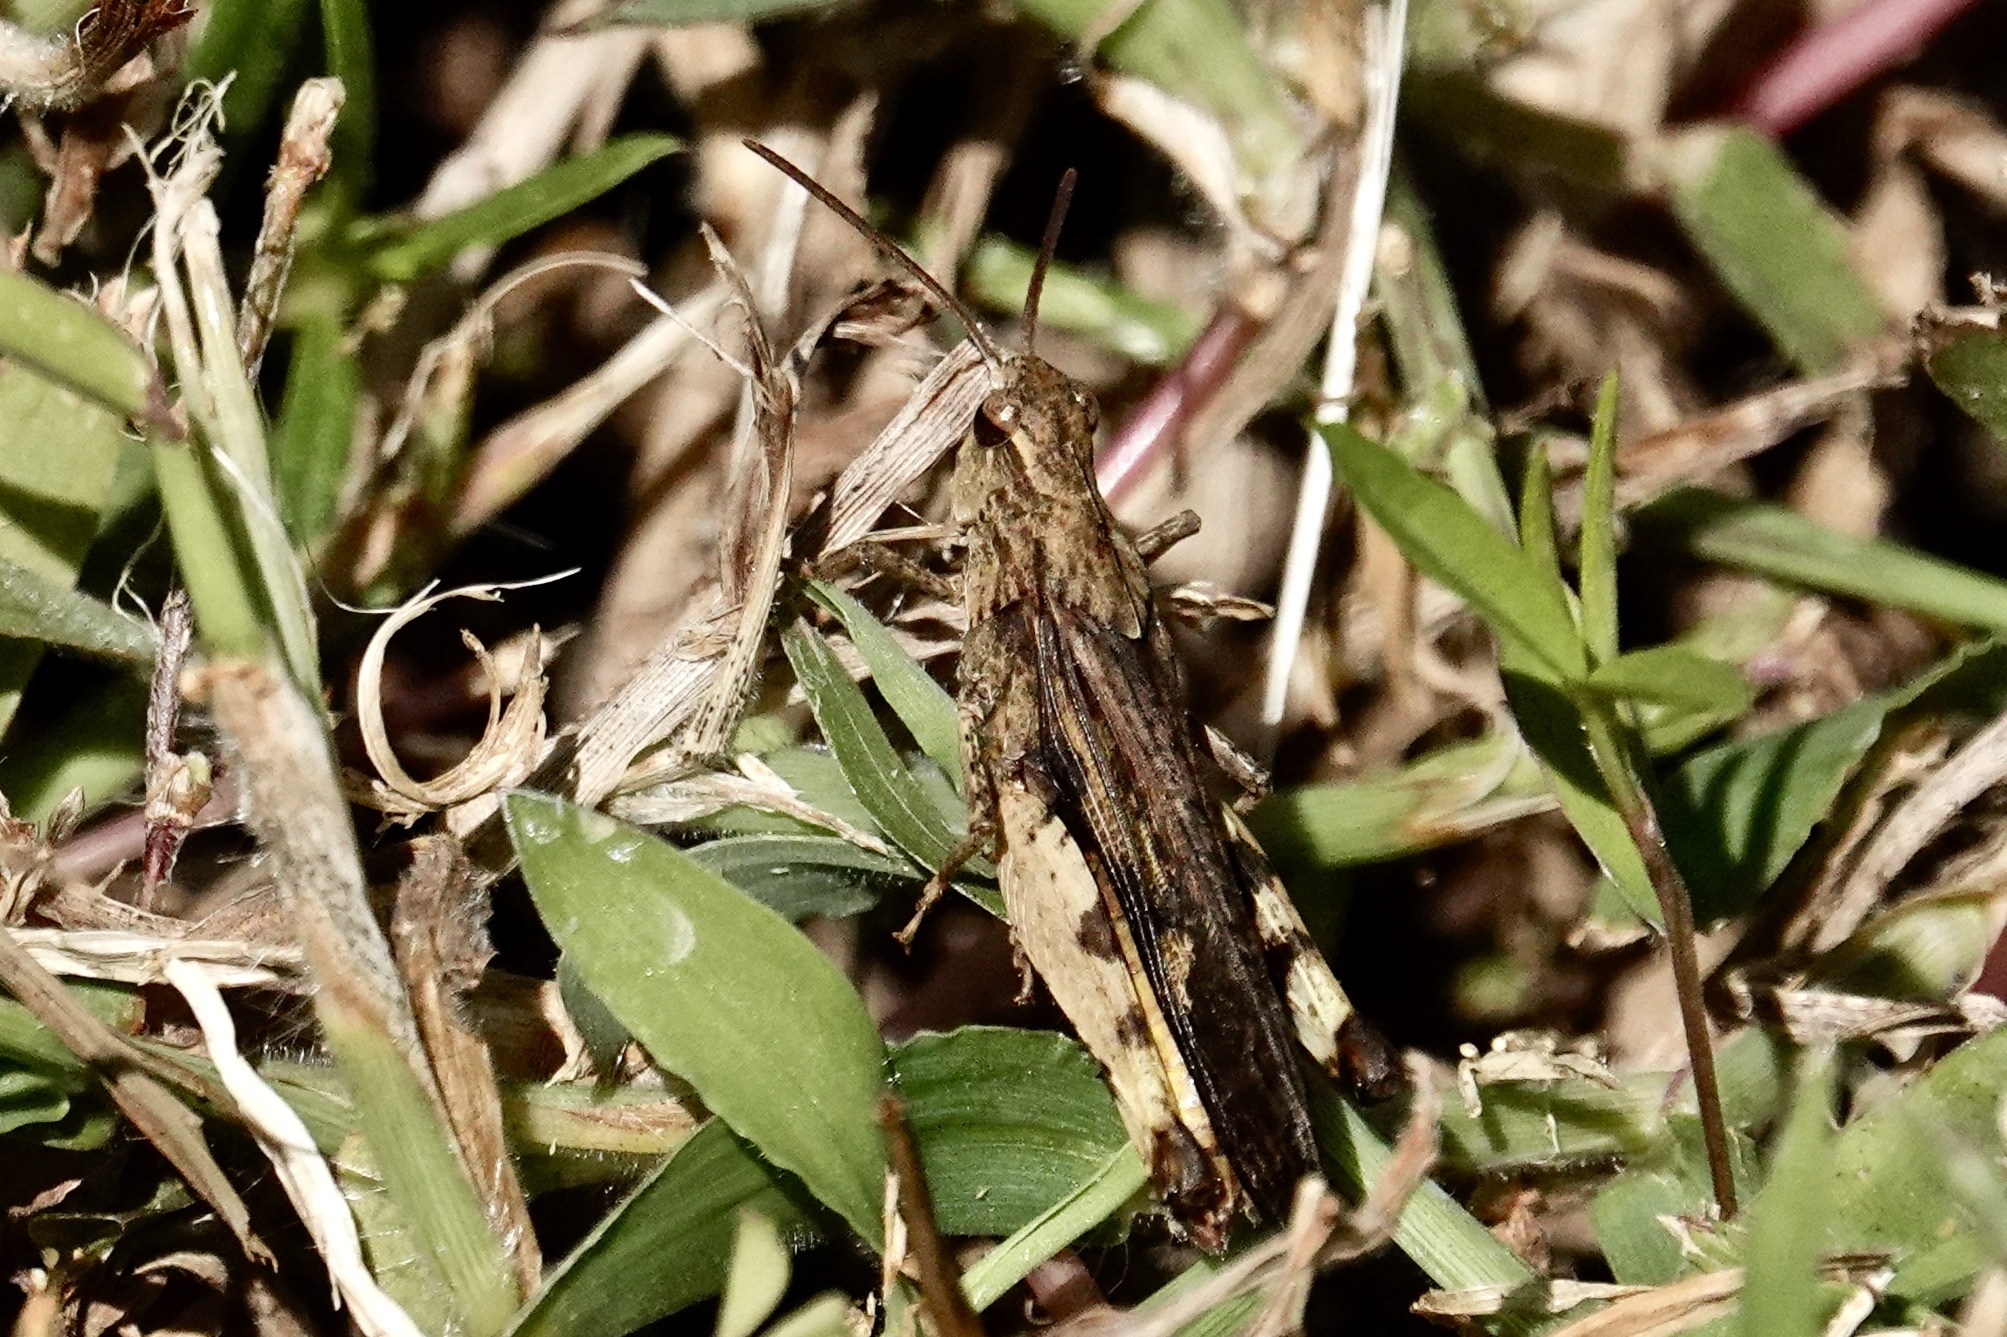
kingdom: Animalia
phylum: Arthropoda
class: Insecta
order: Orthoptera
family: Acrididae
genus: Chortophaga
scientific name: Chortophaga viridifasciata
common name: Green-striped grasshopper
